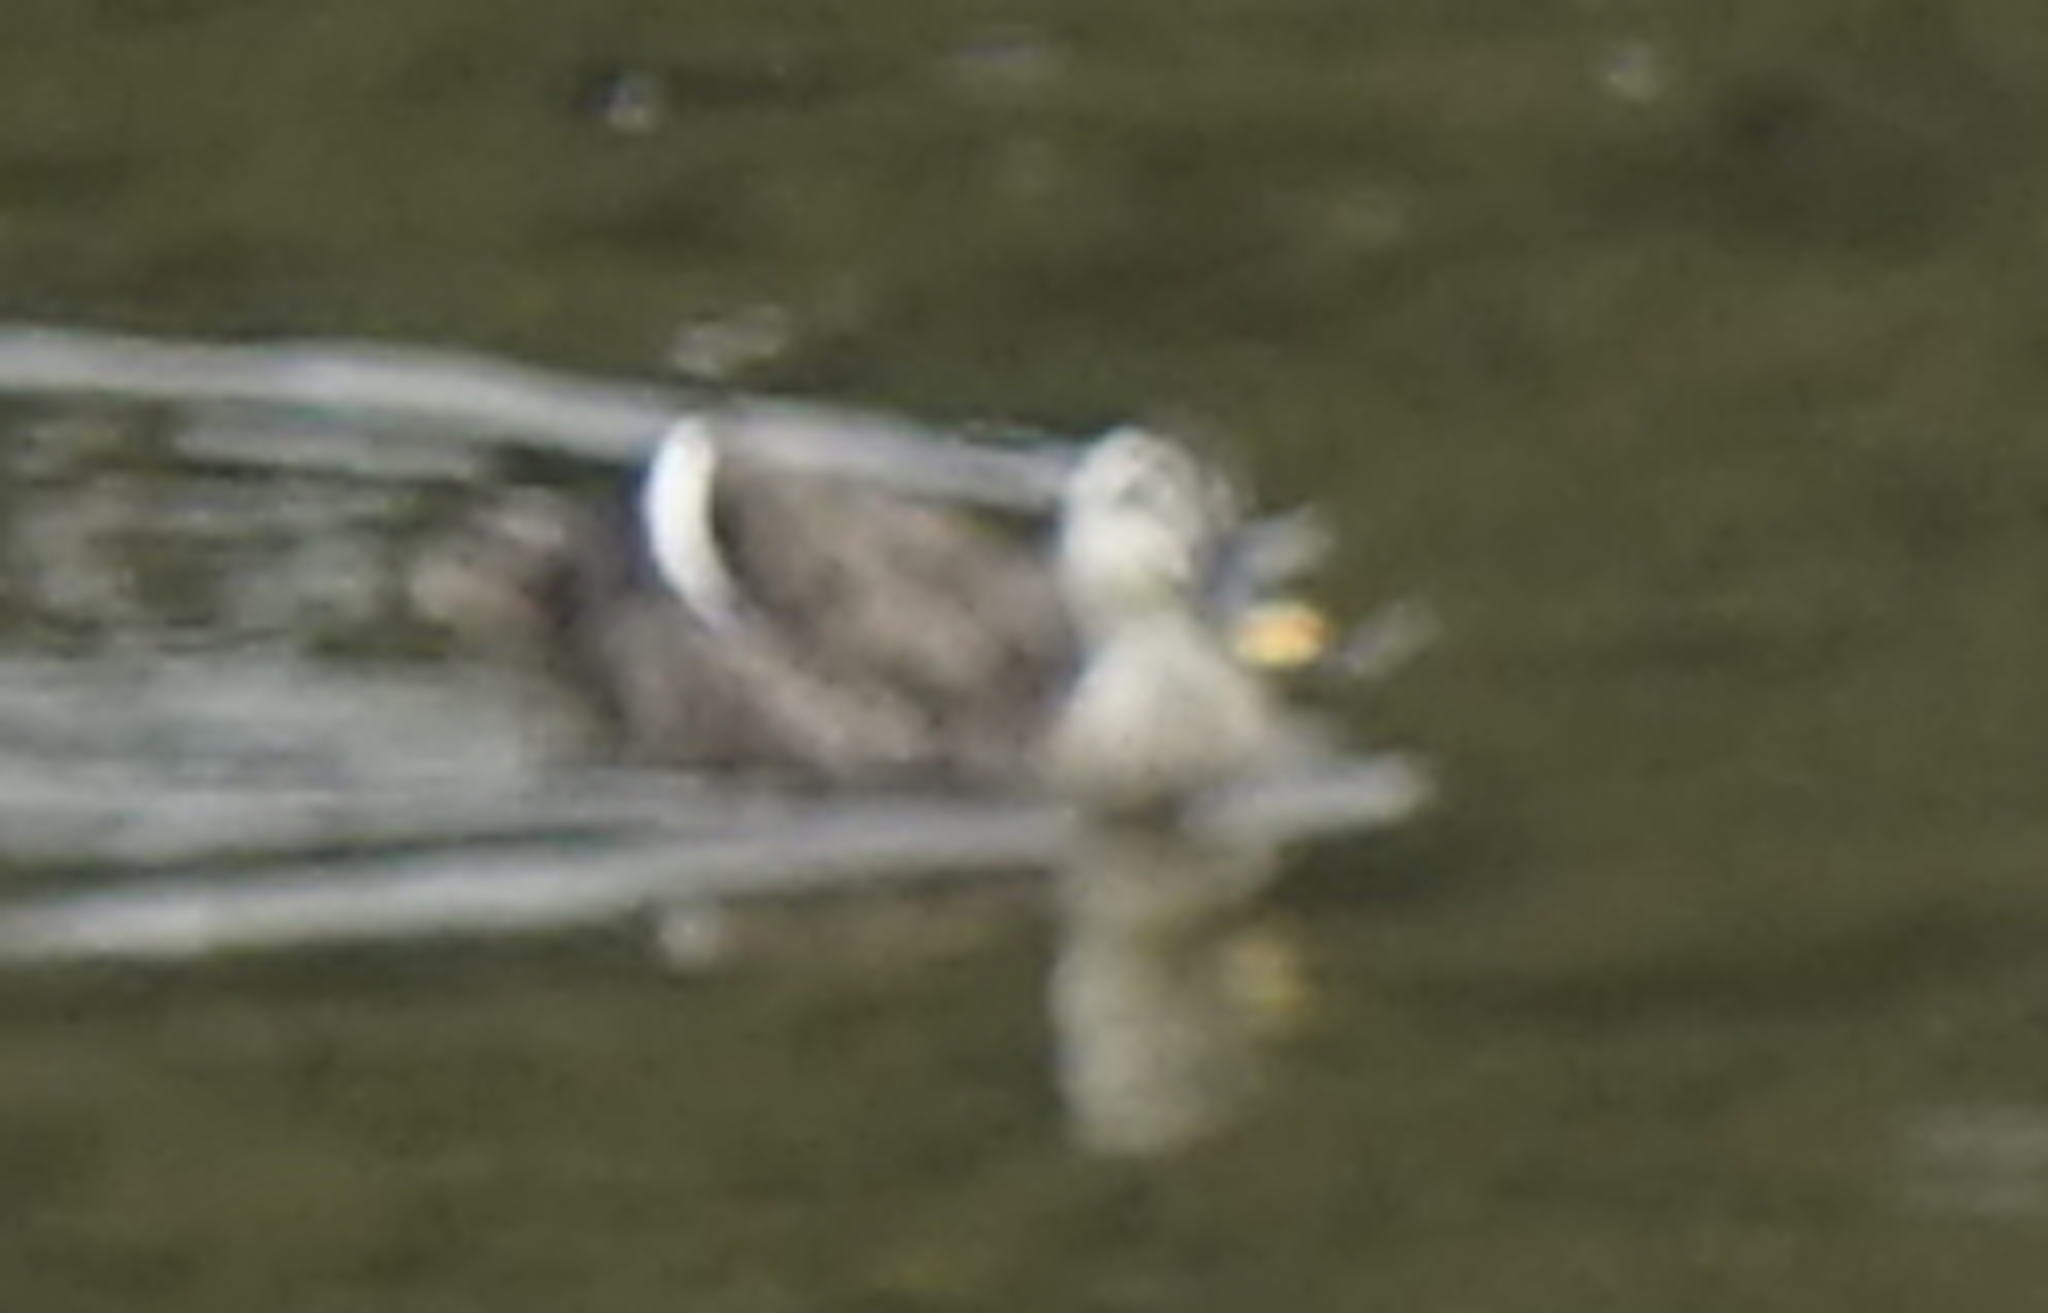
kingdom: Animalia
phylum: Chordata
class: Aves
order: Anseriformes
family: Anatidae
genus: Anas
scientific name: Anas zonorhyncha
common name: Eastern spot-billed duck
